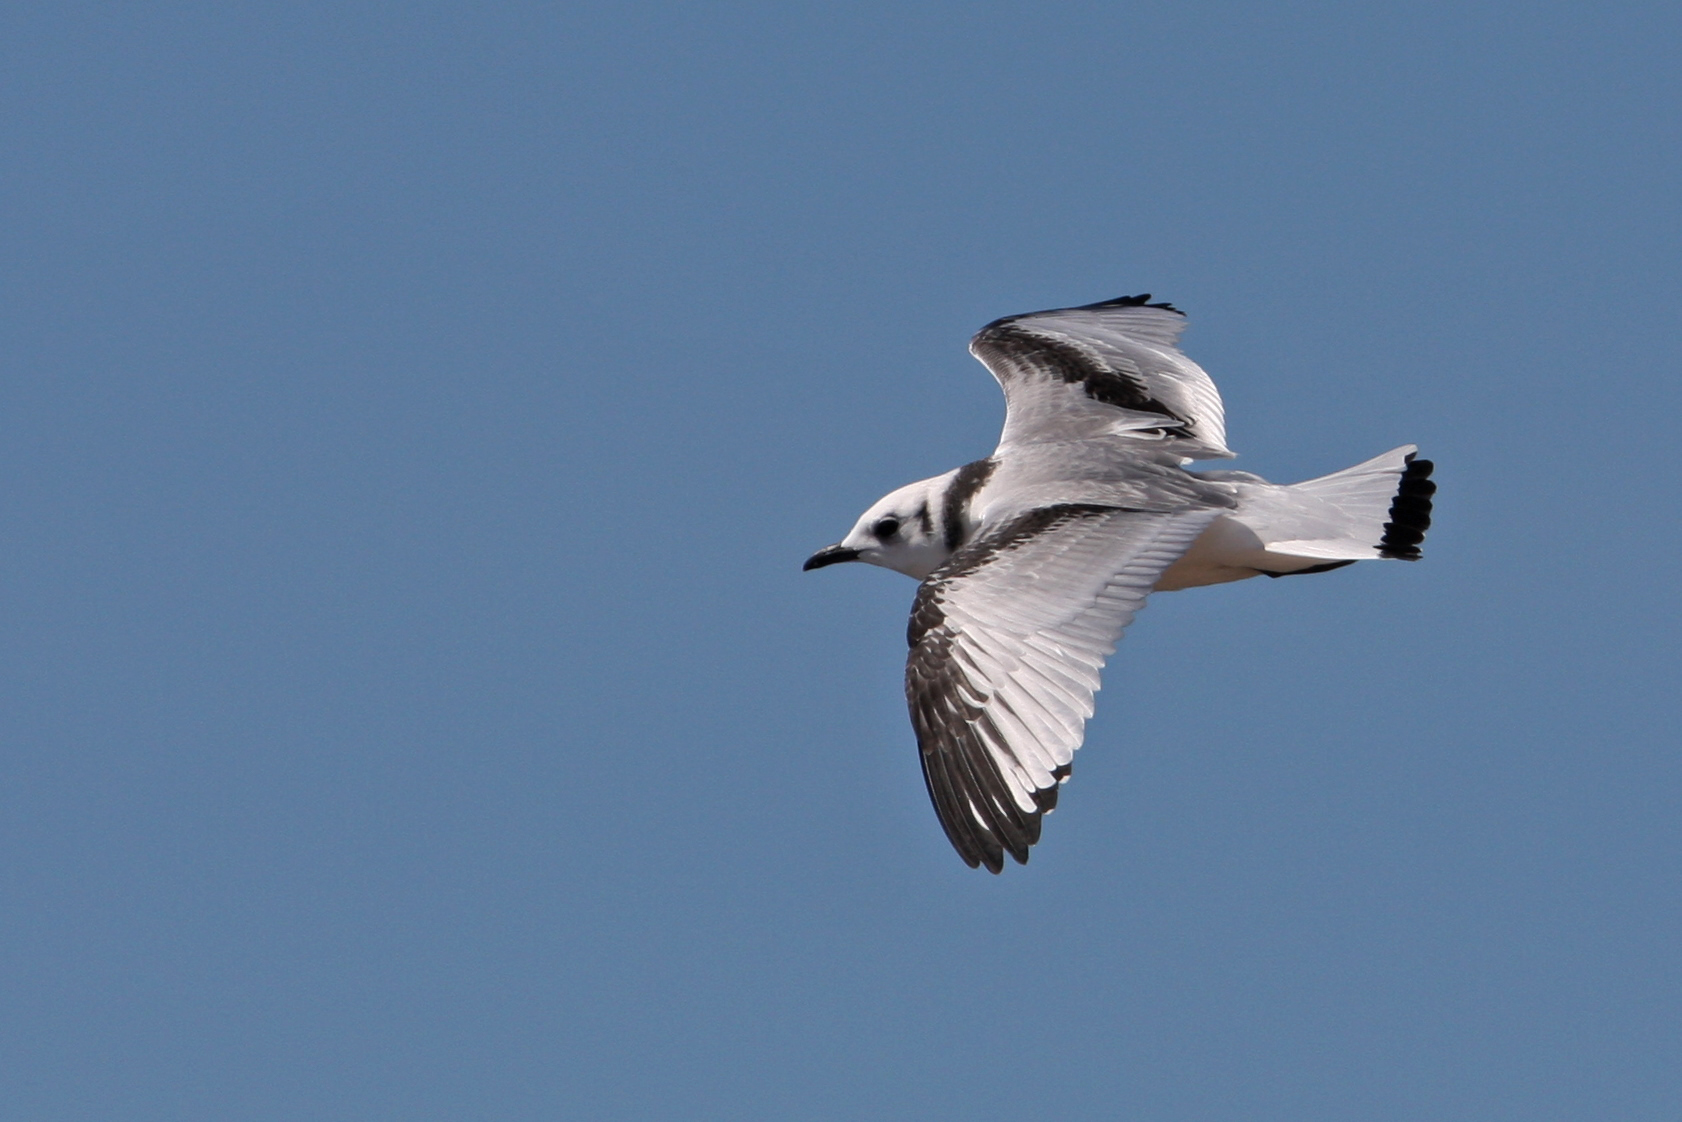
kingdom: Animalia
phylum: Chordata
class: Aves
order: Charadriiformes
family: Laridae
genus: Rissa
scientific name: Rissa tridactyla
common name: Black-legged kittiwake
